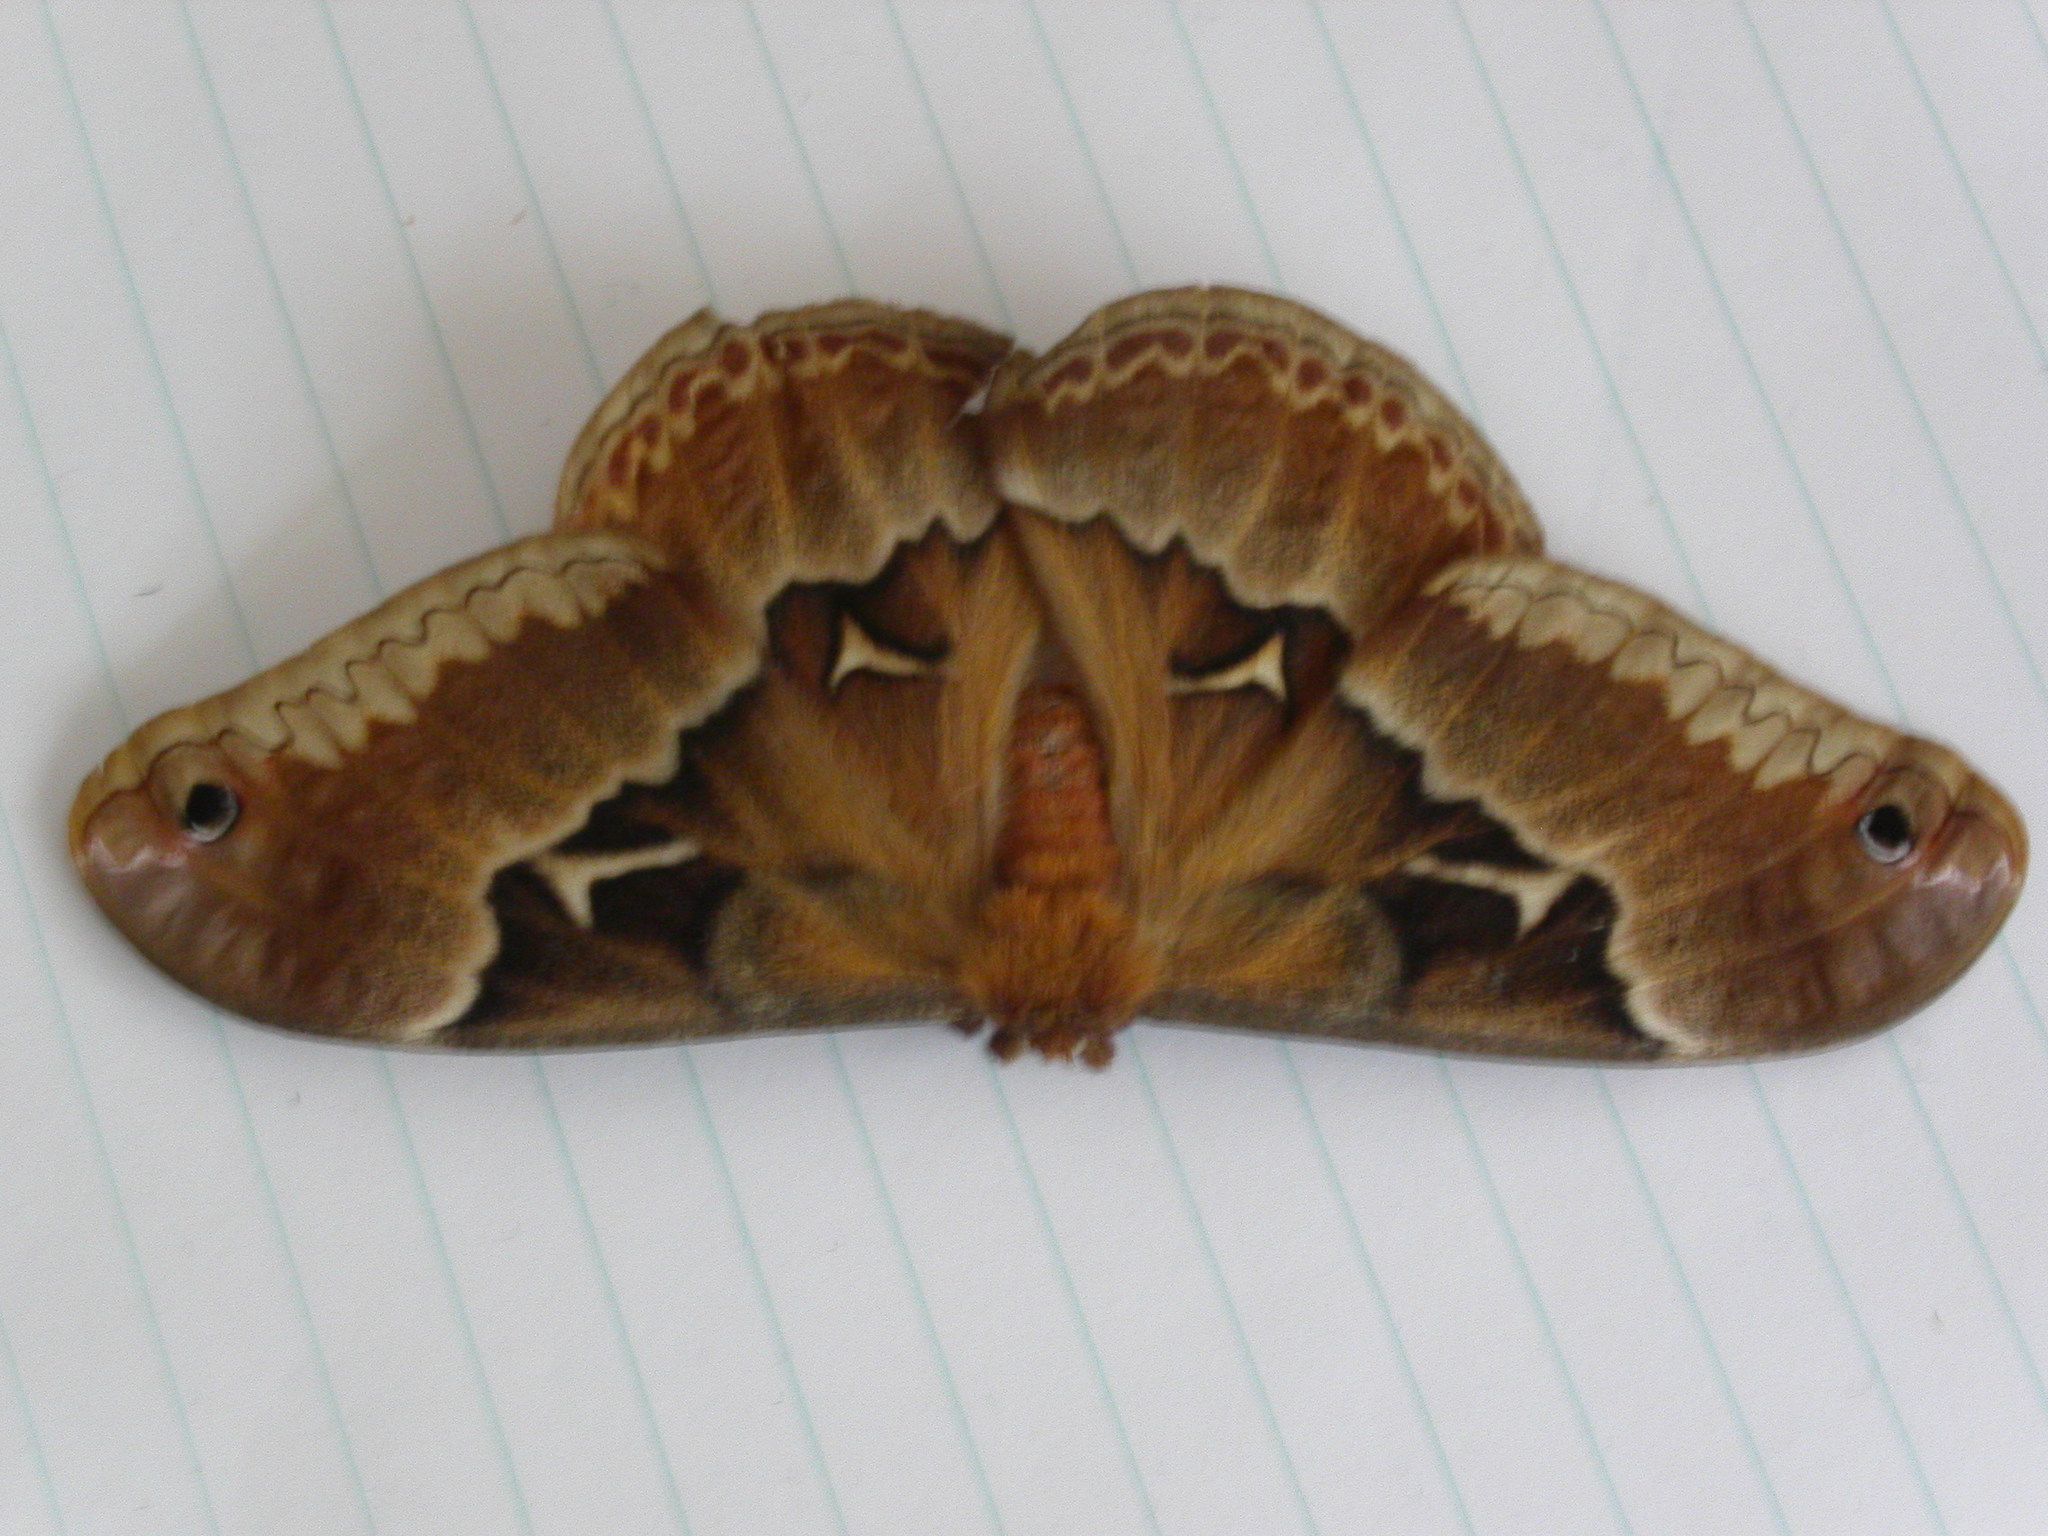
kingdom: Animalia
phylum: Arthropoda
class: Insecta
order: Lepidoptera
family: Saturniidae
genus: Callosamia
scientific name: Callosamia angulifera
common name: Tulip tree silkmoth
